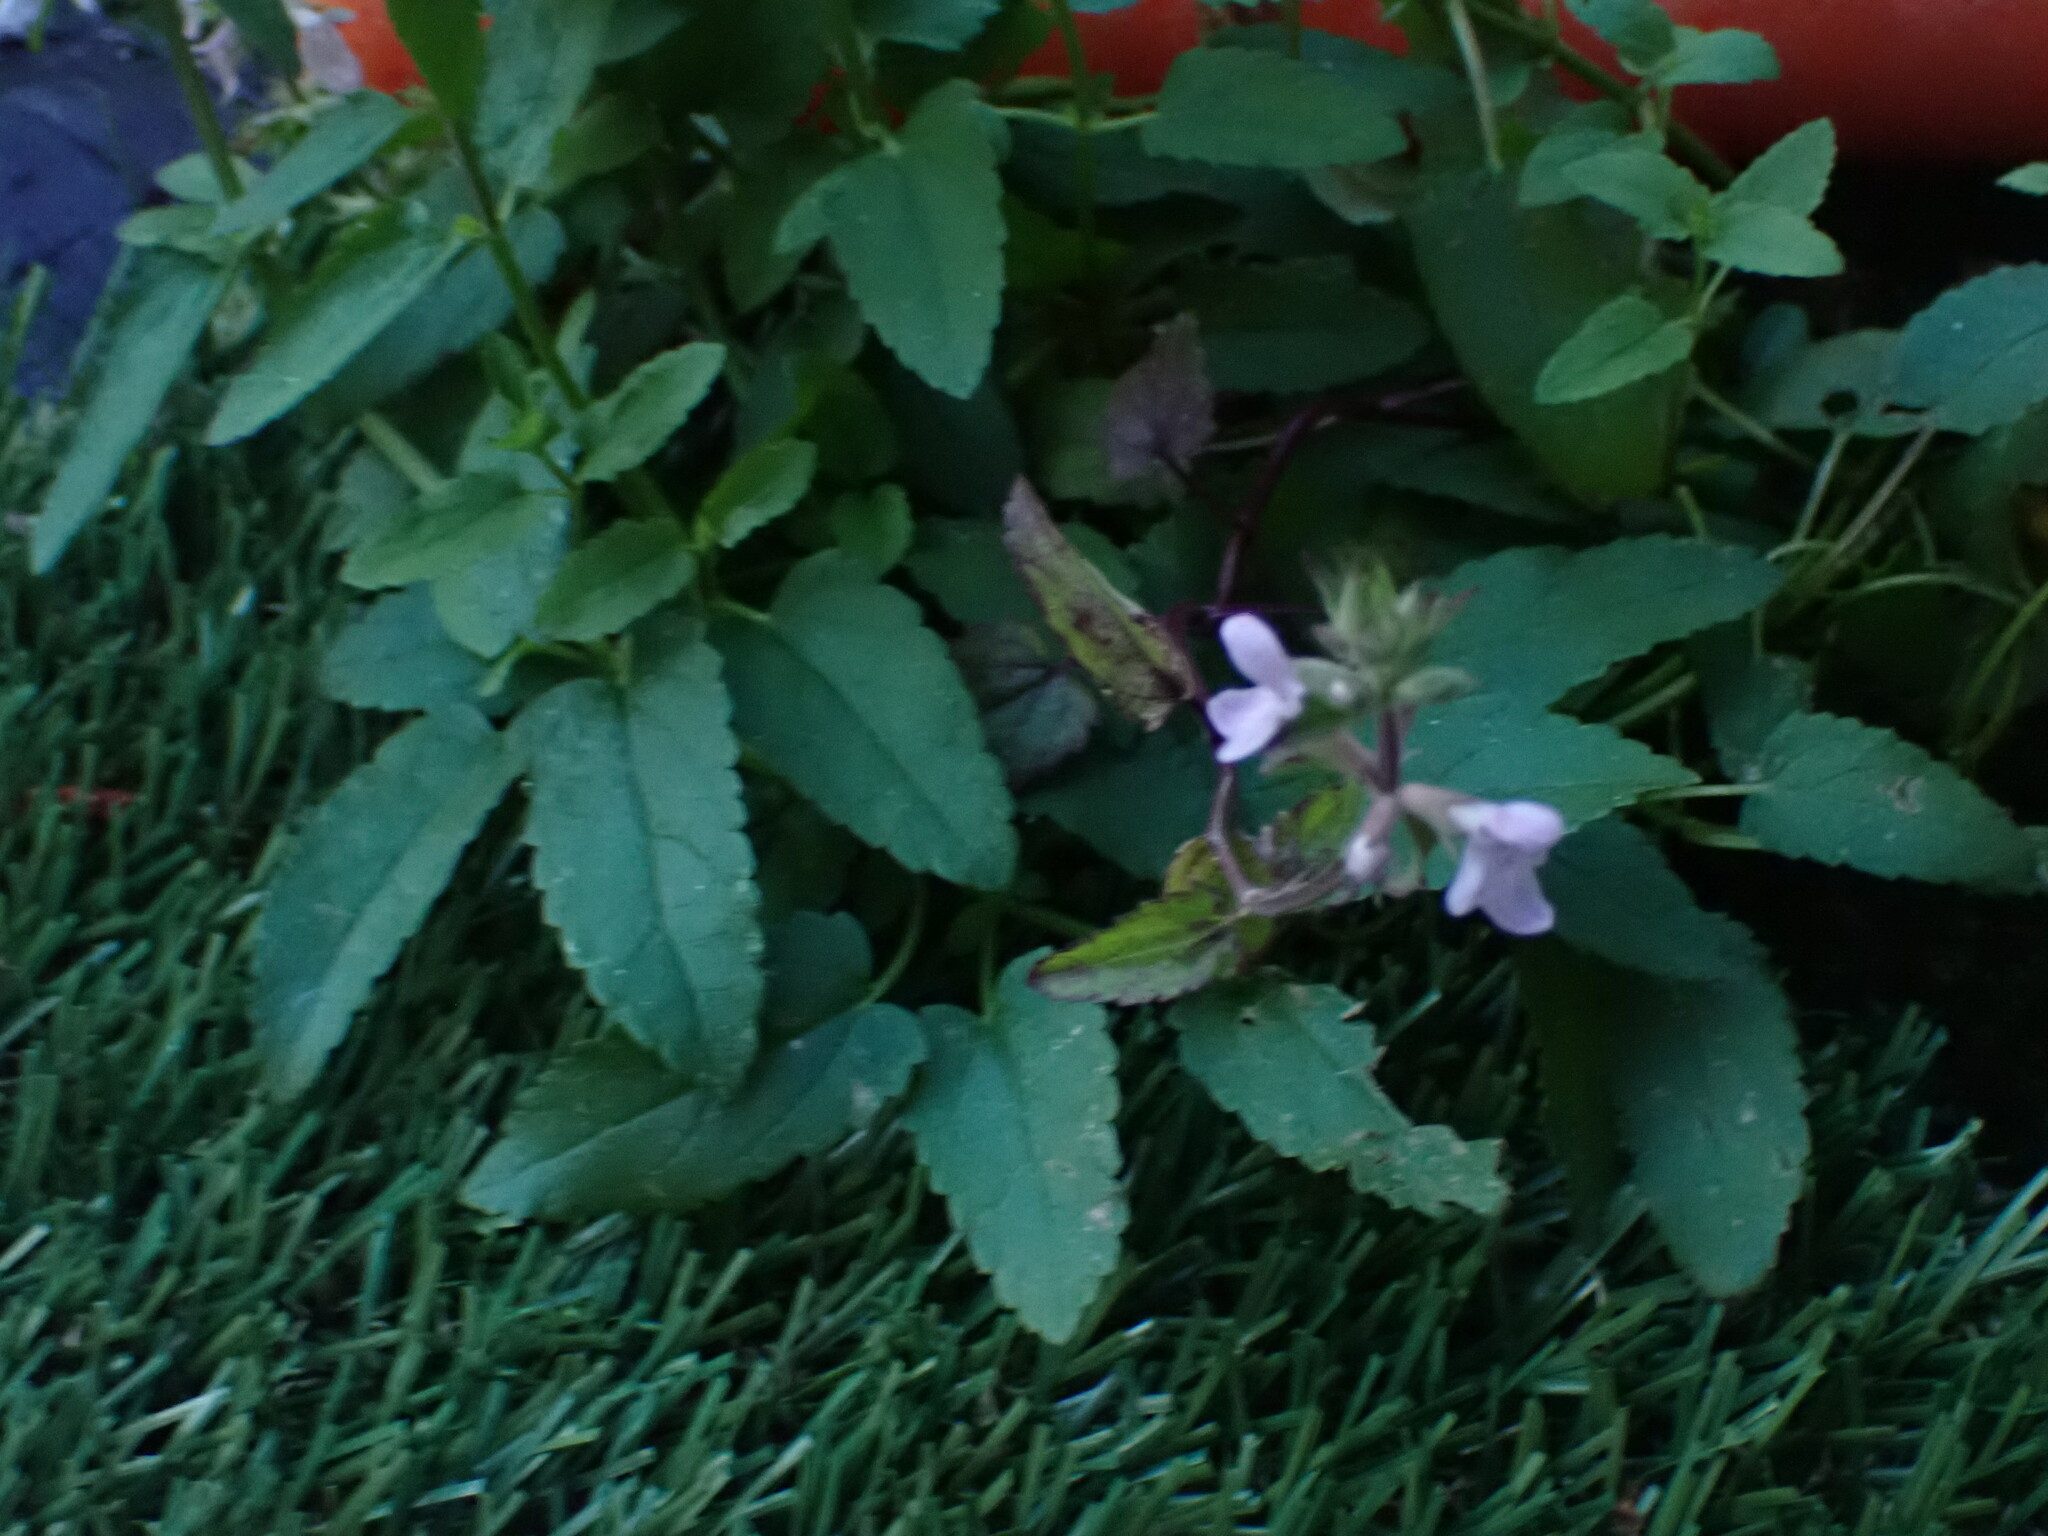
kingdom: Plantae
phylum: Tracheophyta
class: Magnoliopsida
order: Lamiales
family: Lamiaceae
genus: Stachys
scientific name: Stachys floridana
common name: Florida betony
